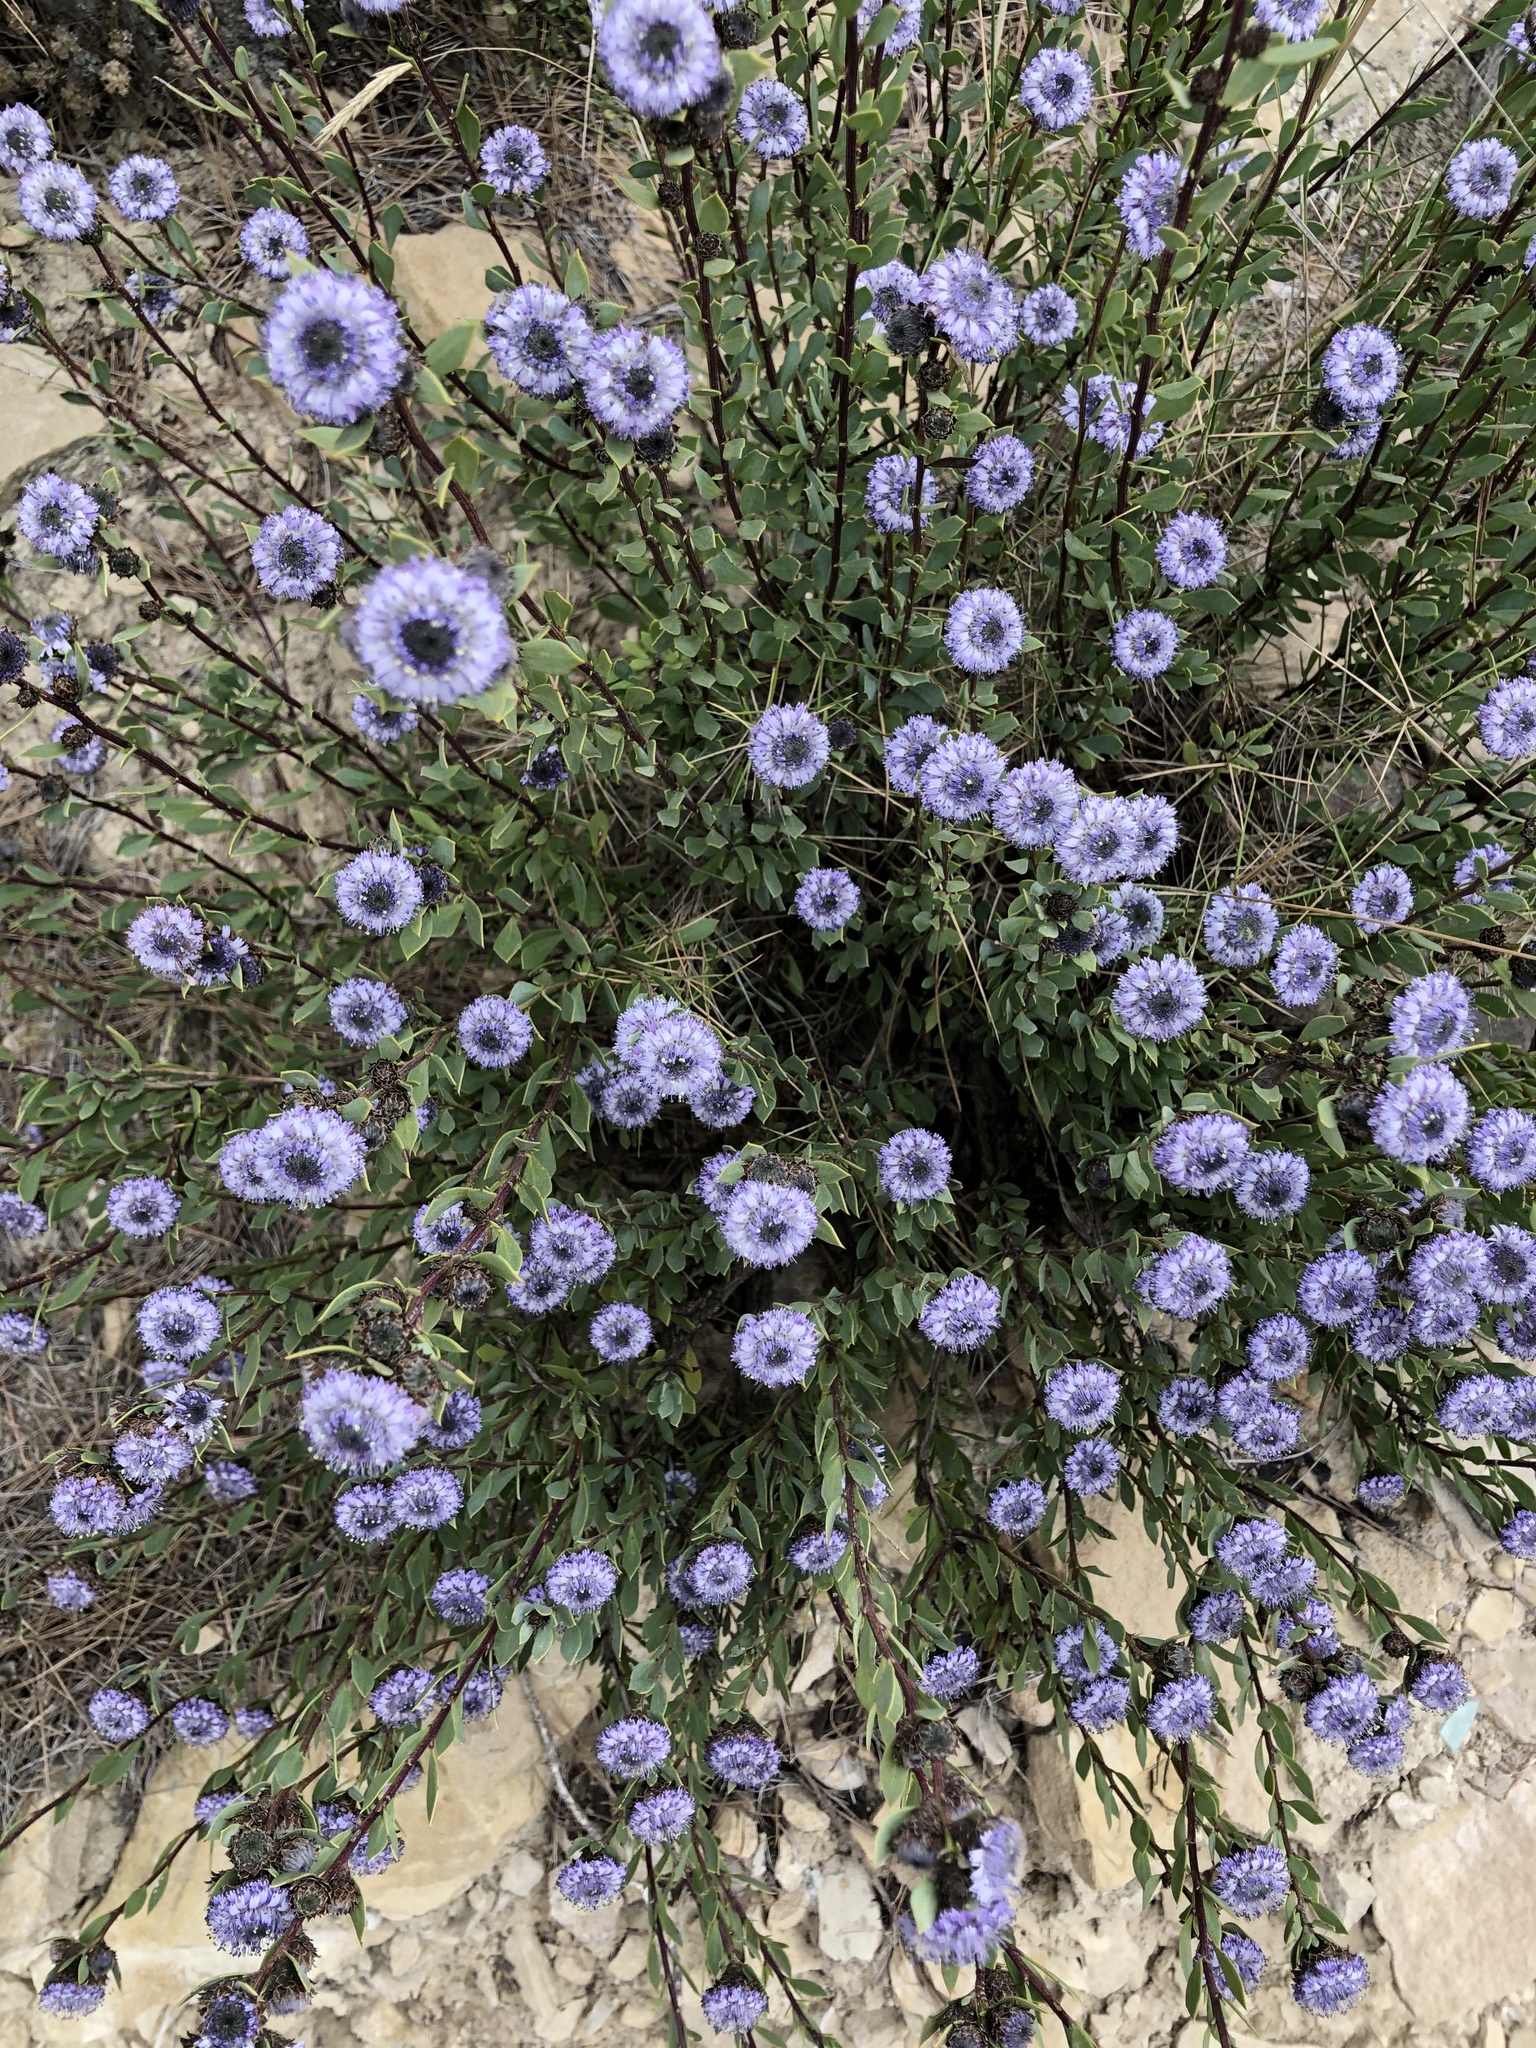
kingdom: Plantae
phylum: Tracheophyta
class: Magnoliopsida
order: Lamiales
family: Plantaginaceae
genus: Globularia
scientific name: Globularia alypum
